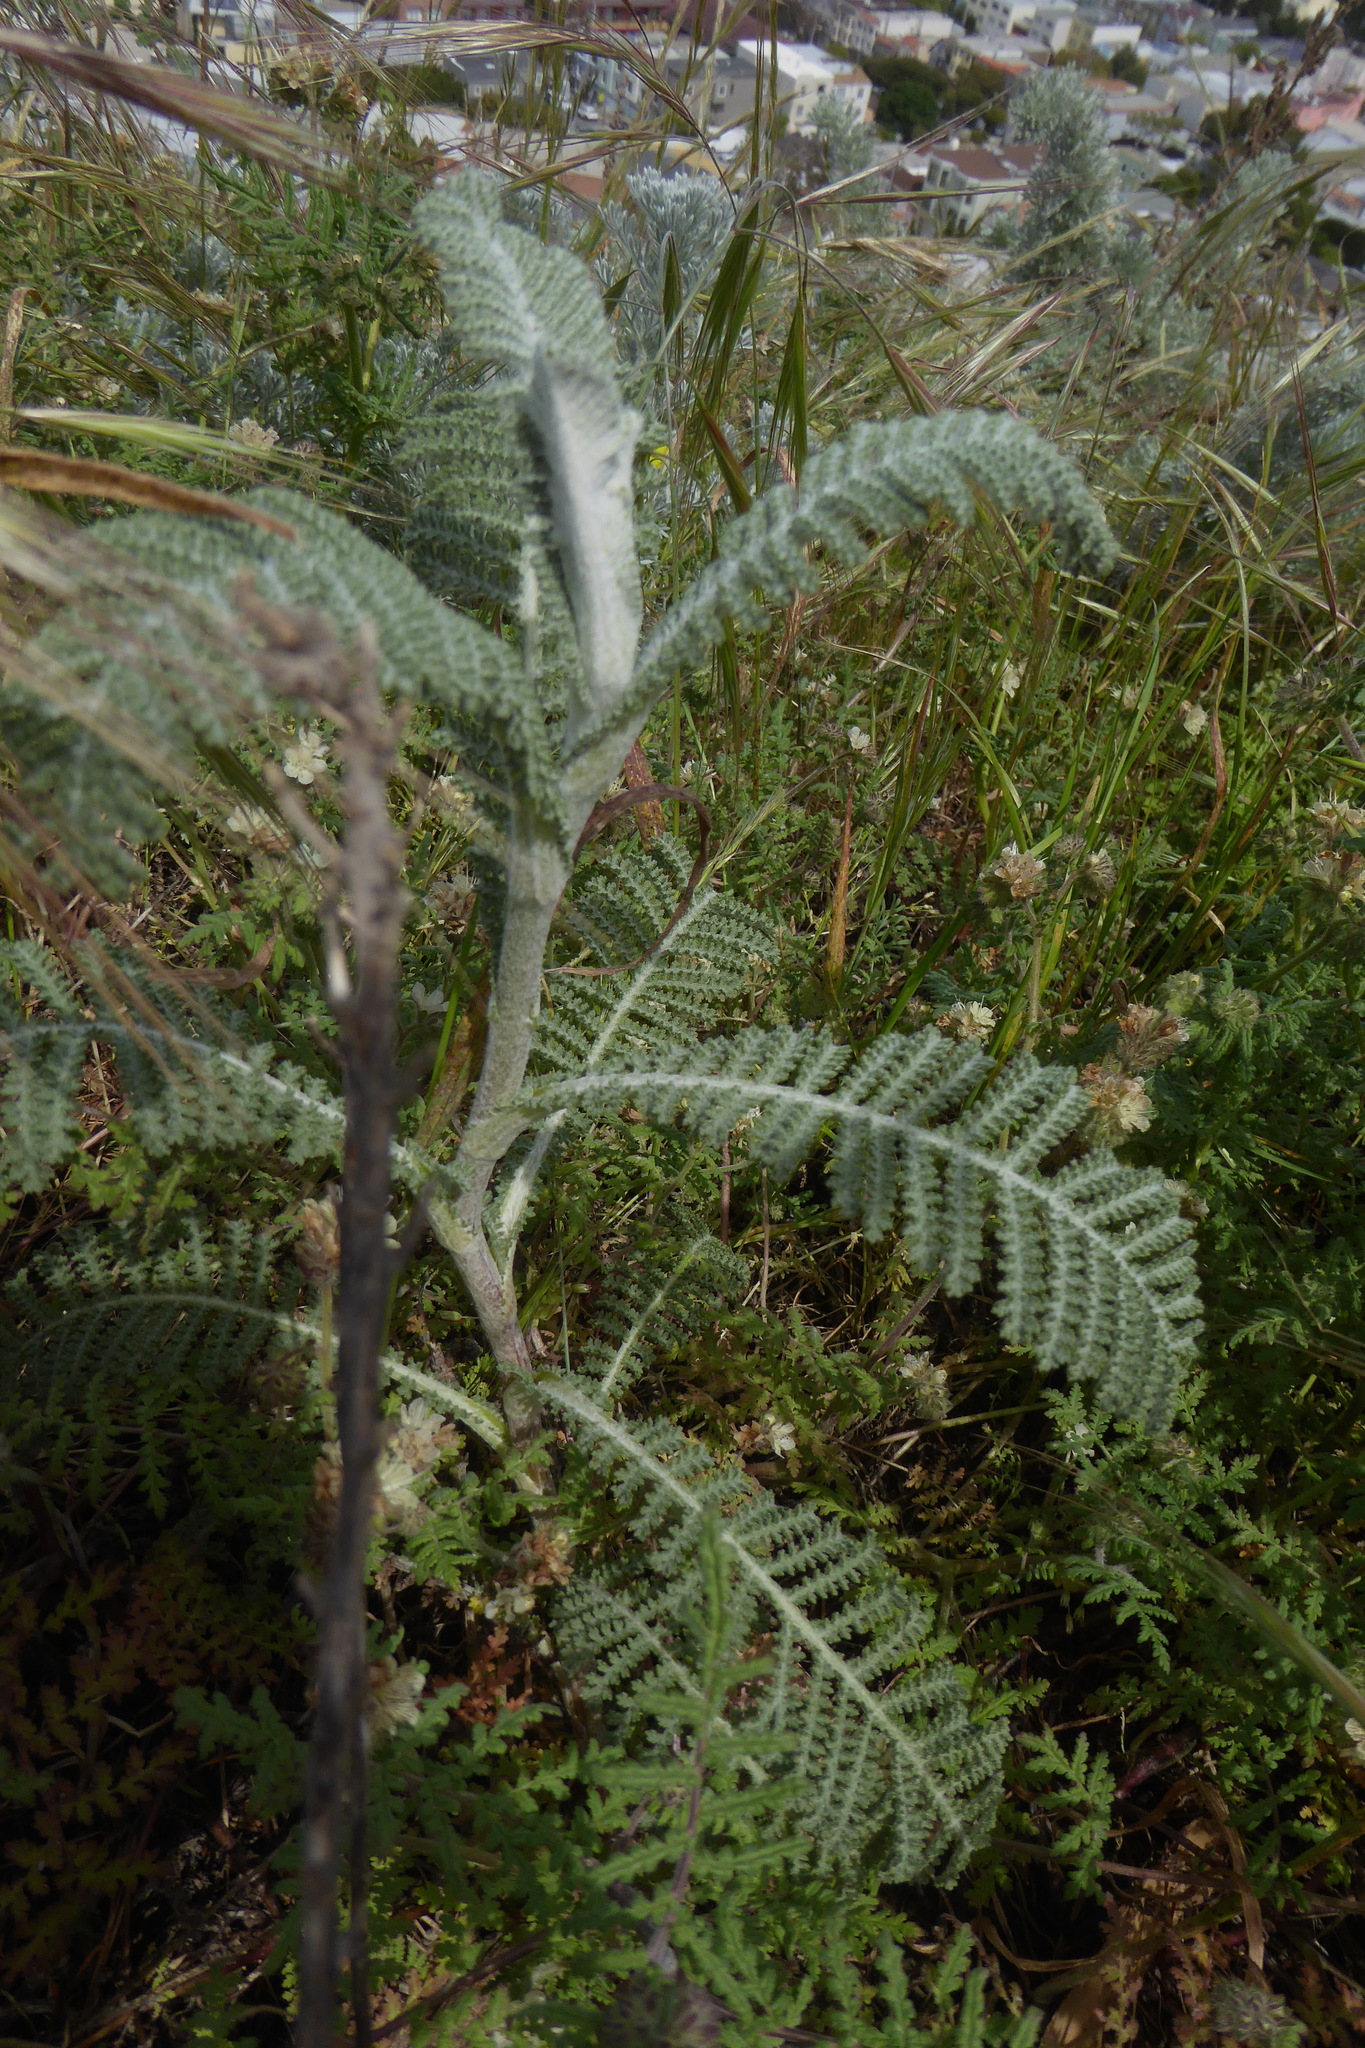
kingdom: Plantae
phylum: Tracheophyta
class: Magnoliopsida
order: Asterales
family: Asteraceae
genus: Tanacetum
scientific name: Tanacetum bipinnatum
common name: Dwarf tansy
